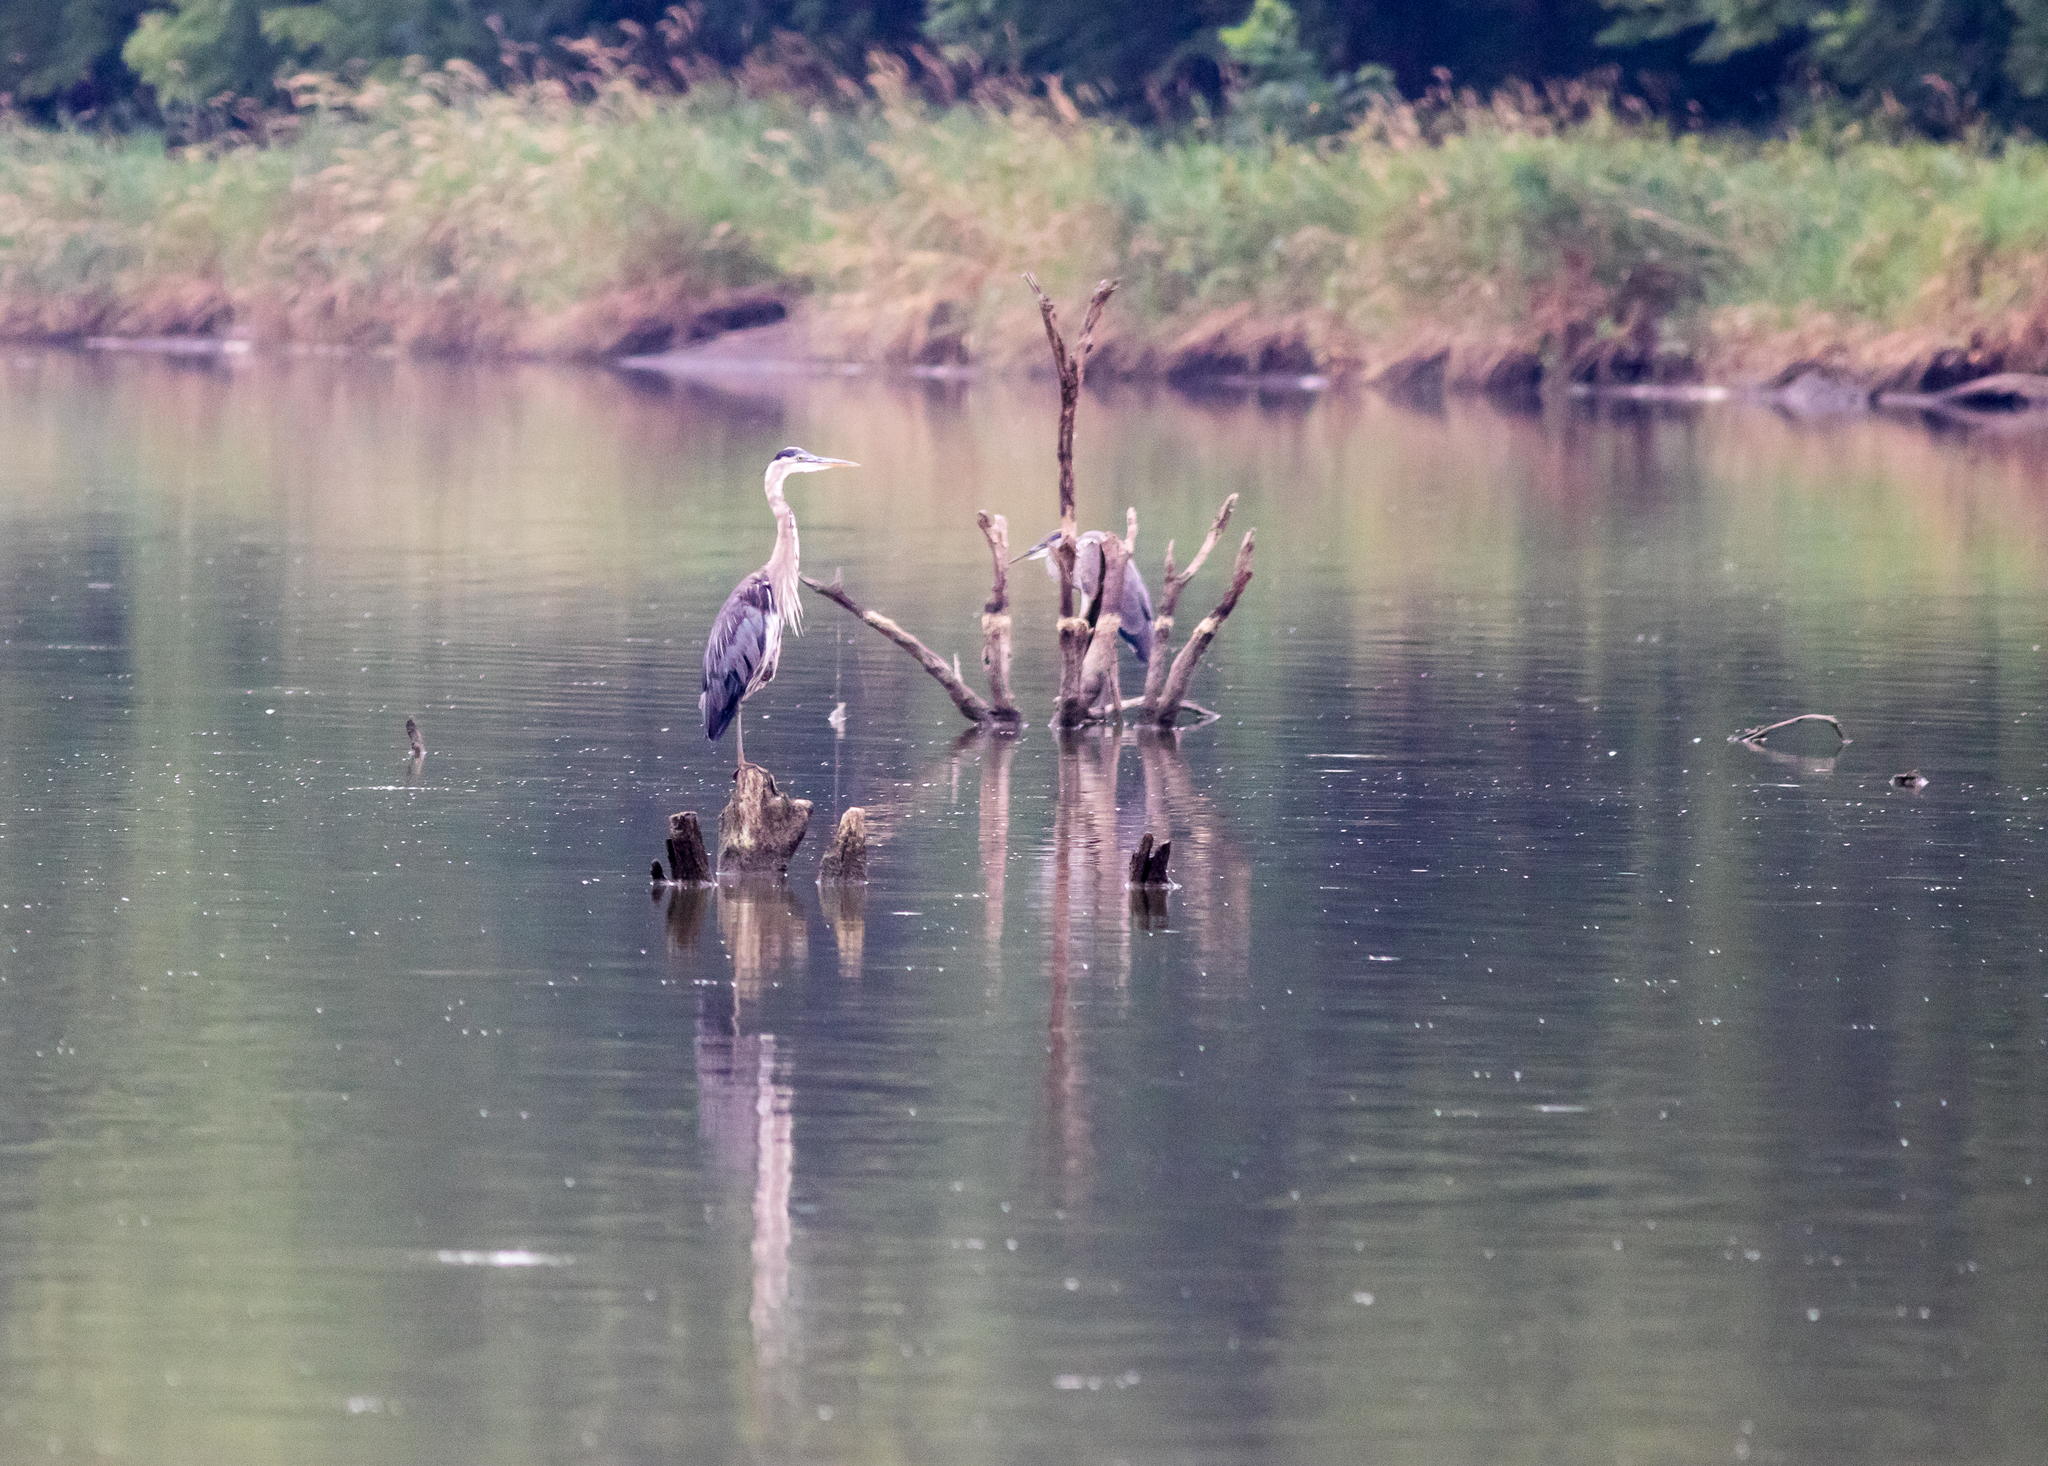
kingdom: Animalia
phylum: Chordata
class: Aves
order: Pelecaniformes
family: Ardeidae
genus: Ardea
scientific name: Ardea herodias
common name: Great blue heron
